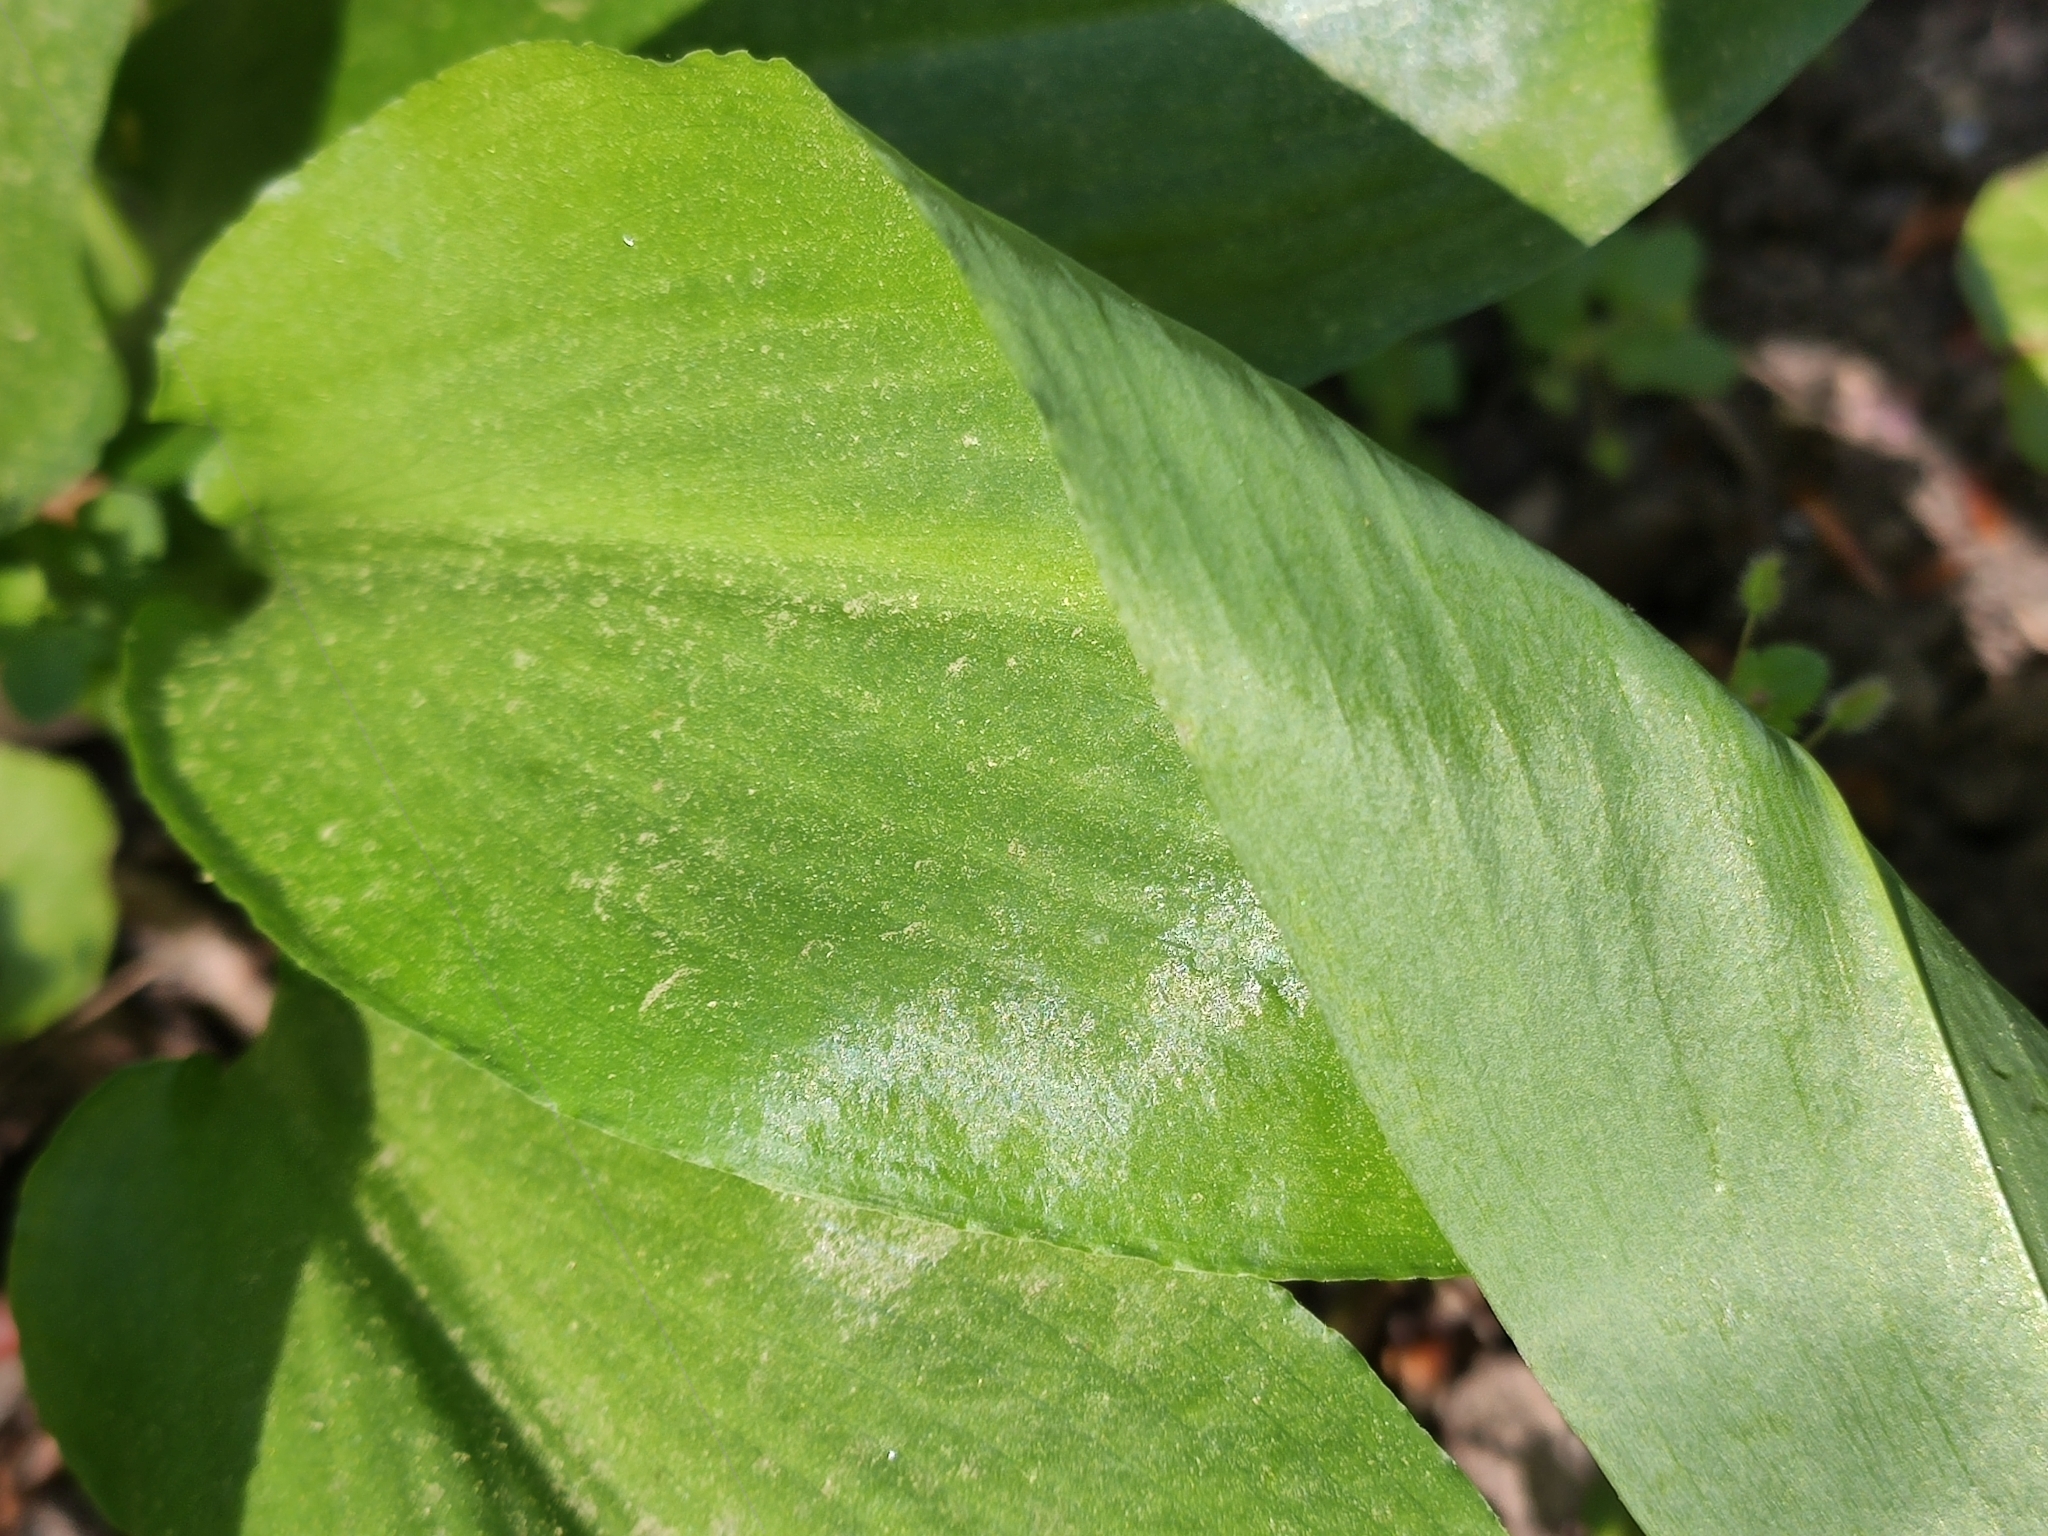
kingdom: Plantae
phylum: Tracheophyta
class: Liliopsida
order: Asparagales
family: Amaryllidaceae
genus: Allium
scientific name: Allium ursinum
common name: Ramsons
